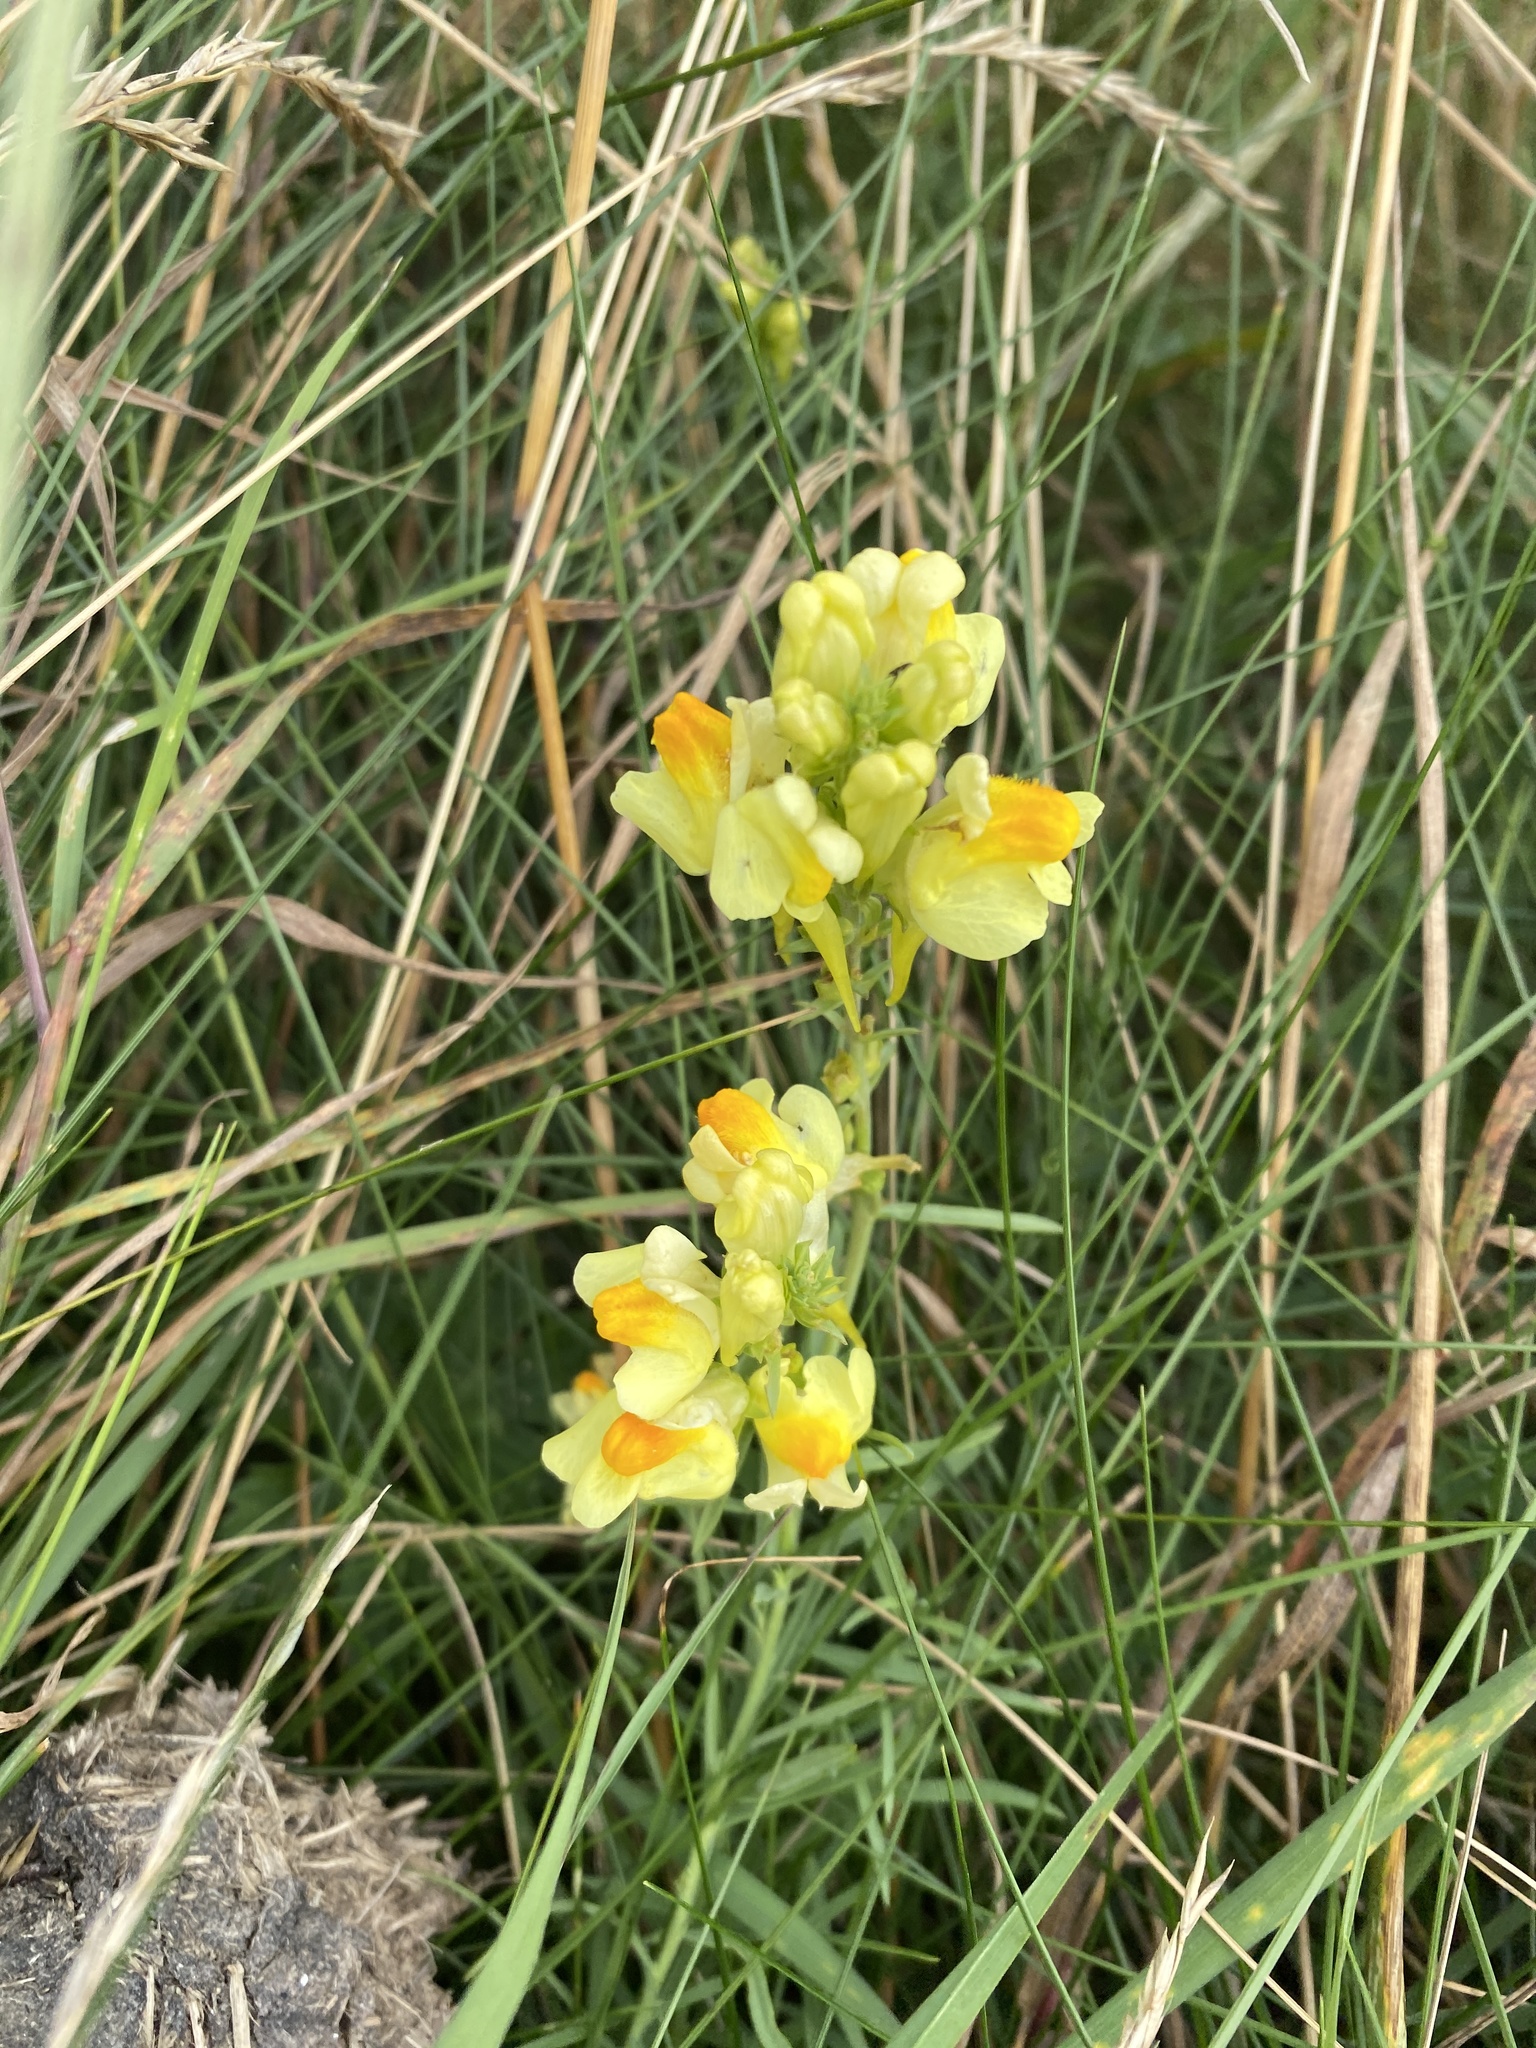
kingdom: Plantae
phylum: Tracheophyta
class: Magnoliopsida
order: Lamiales
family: Plantaginaceae
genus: Linaria
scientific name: Linaria vulgaris
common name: Butter and eggs
